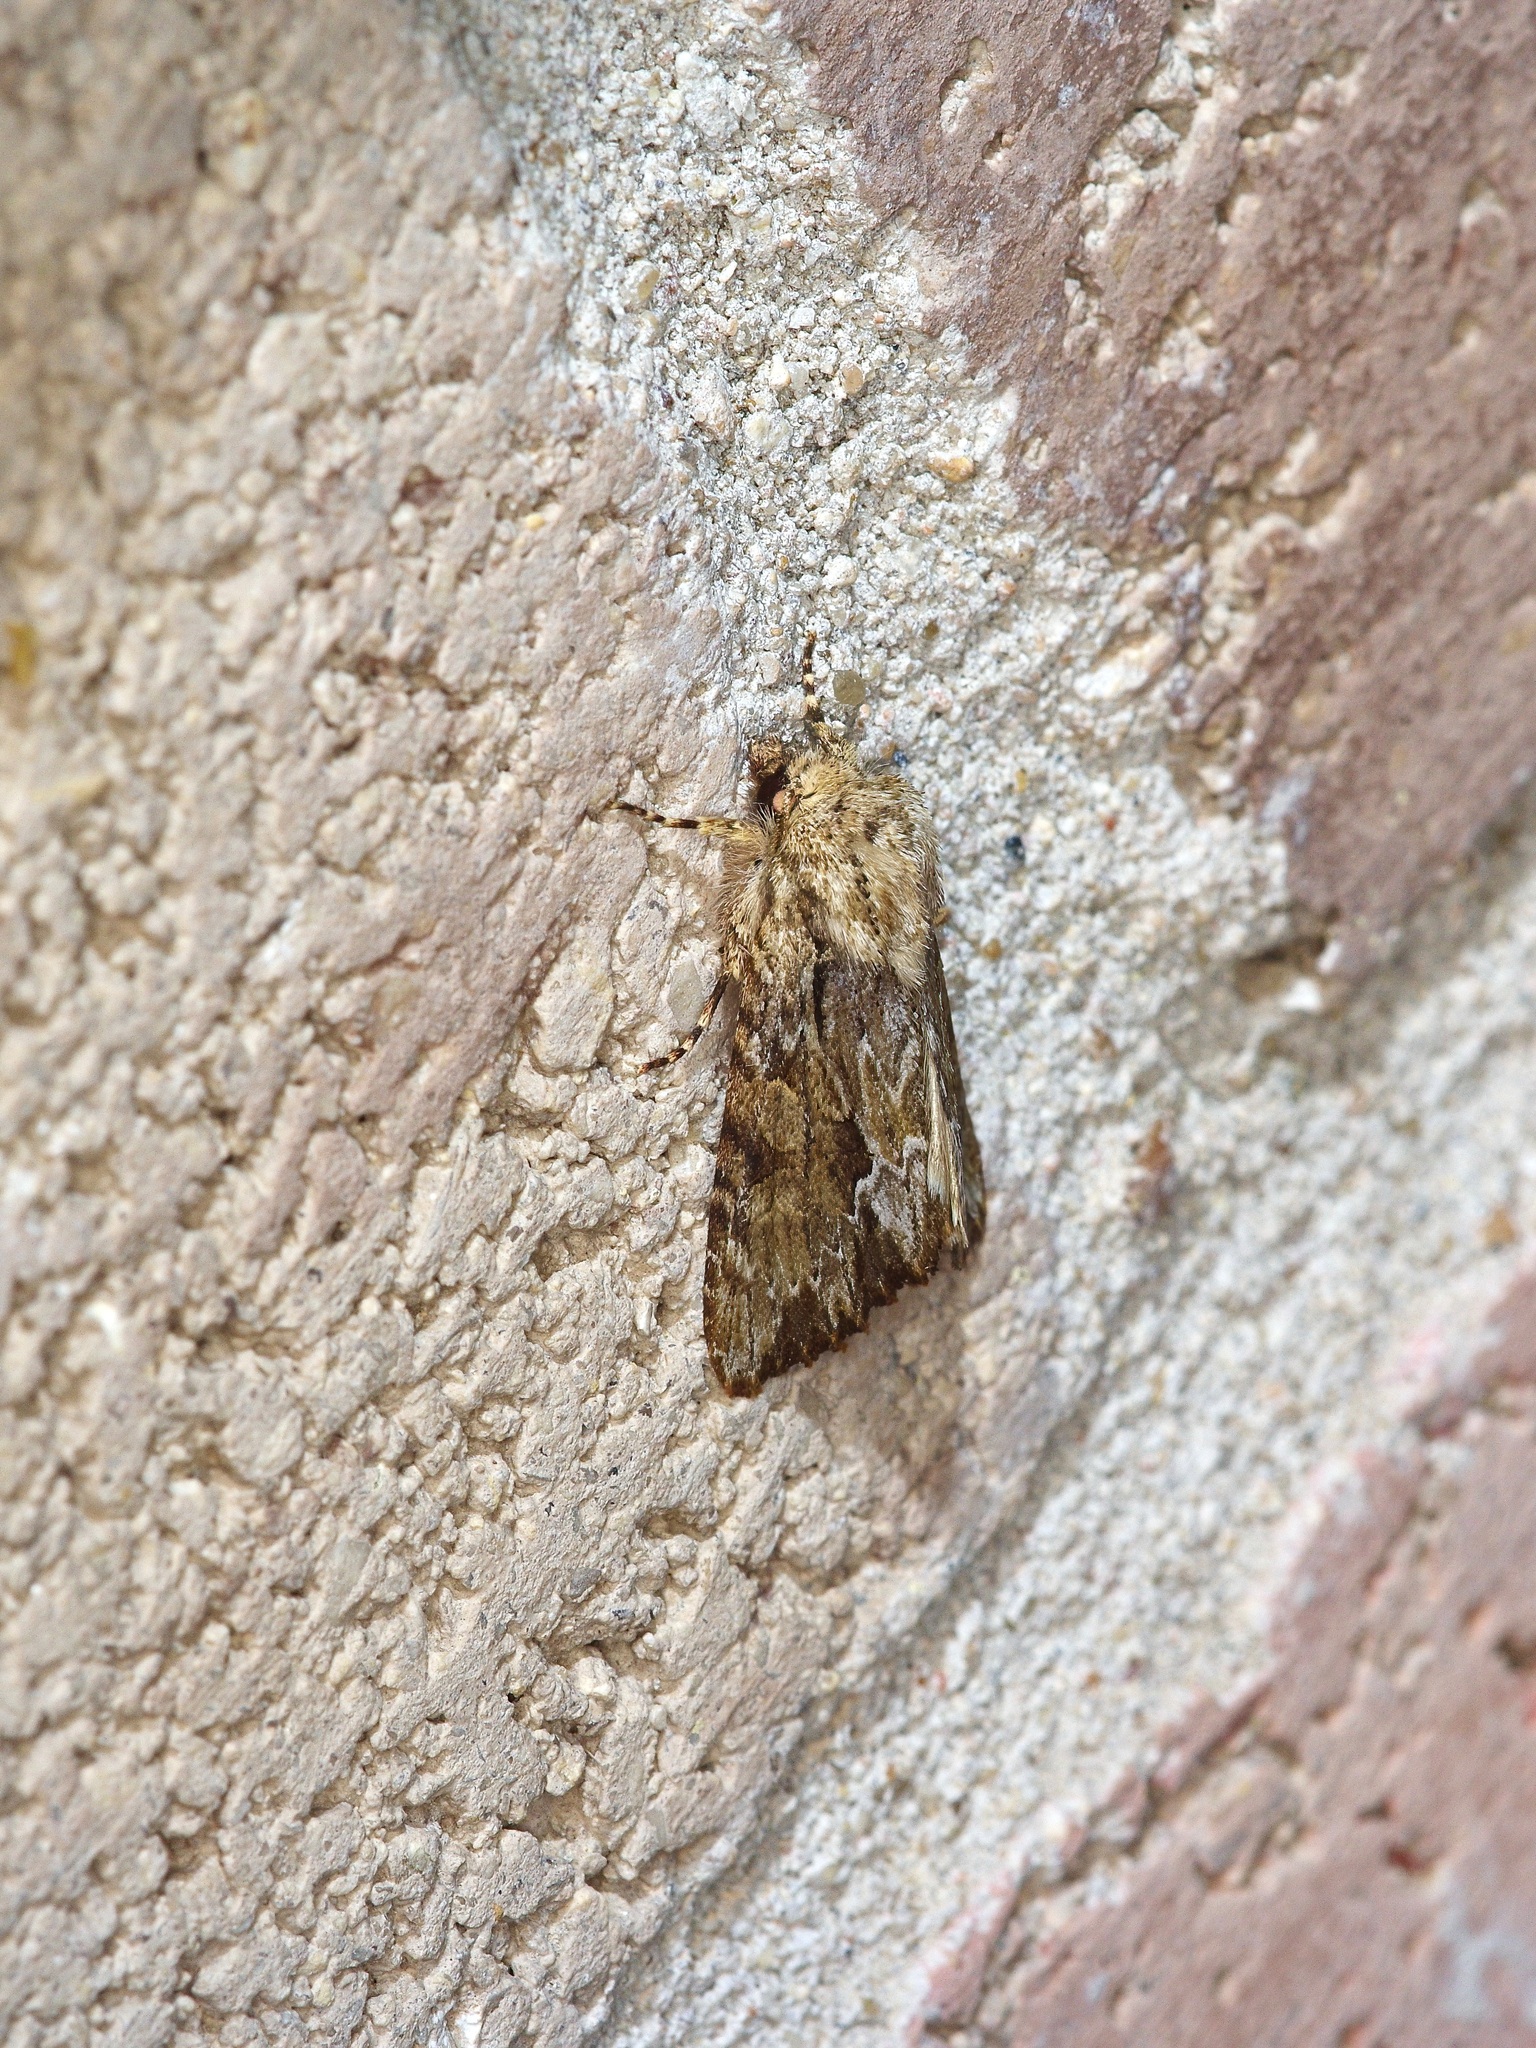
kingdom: Animalia
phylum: Arthropoda
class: Insecta
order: Lepidoptera
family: Noctuidae
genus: Achatia
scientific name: Achatia mucens
